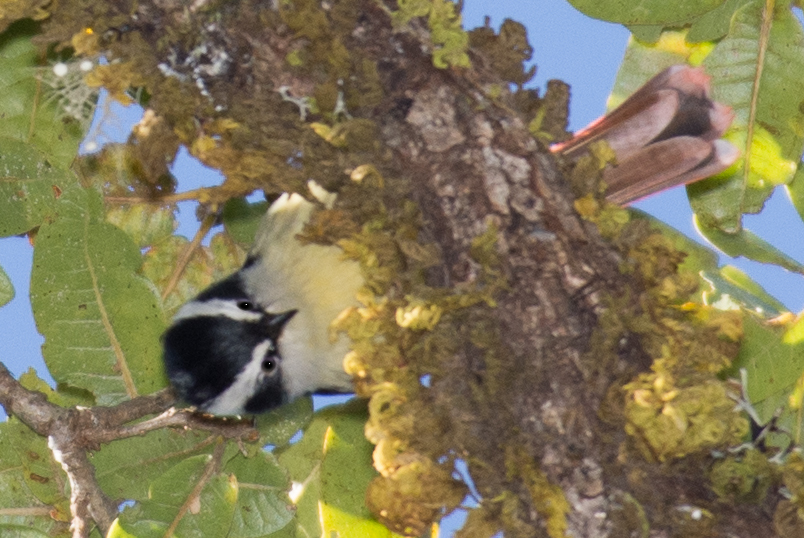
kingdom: Animalia
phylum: Chordata
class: Aves
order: Passeriformes
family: Leiothrichidae
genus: Minla
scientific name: Minla ignotincta
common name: Red-tailed minla
